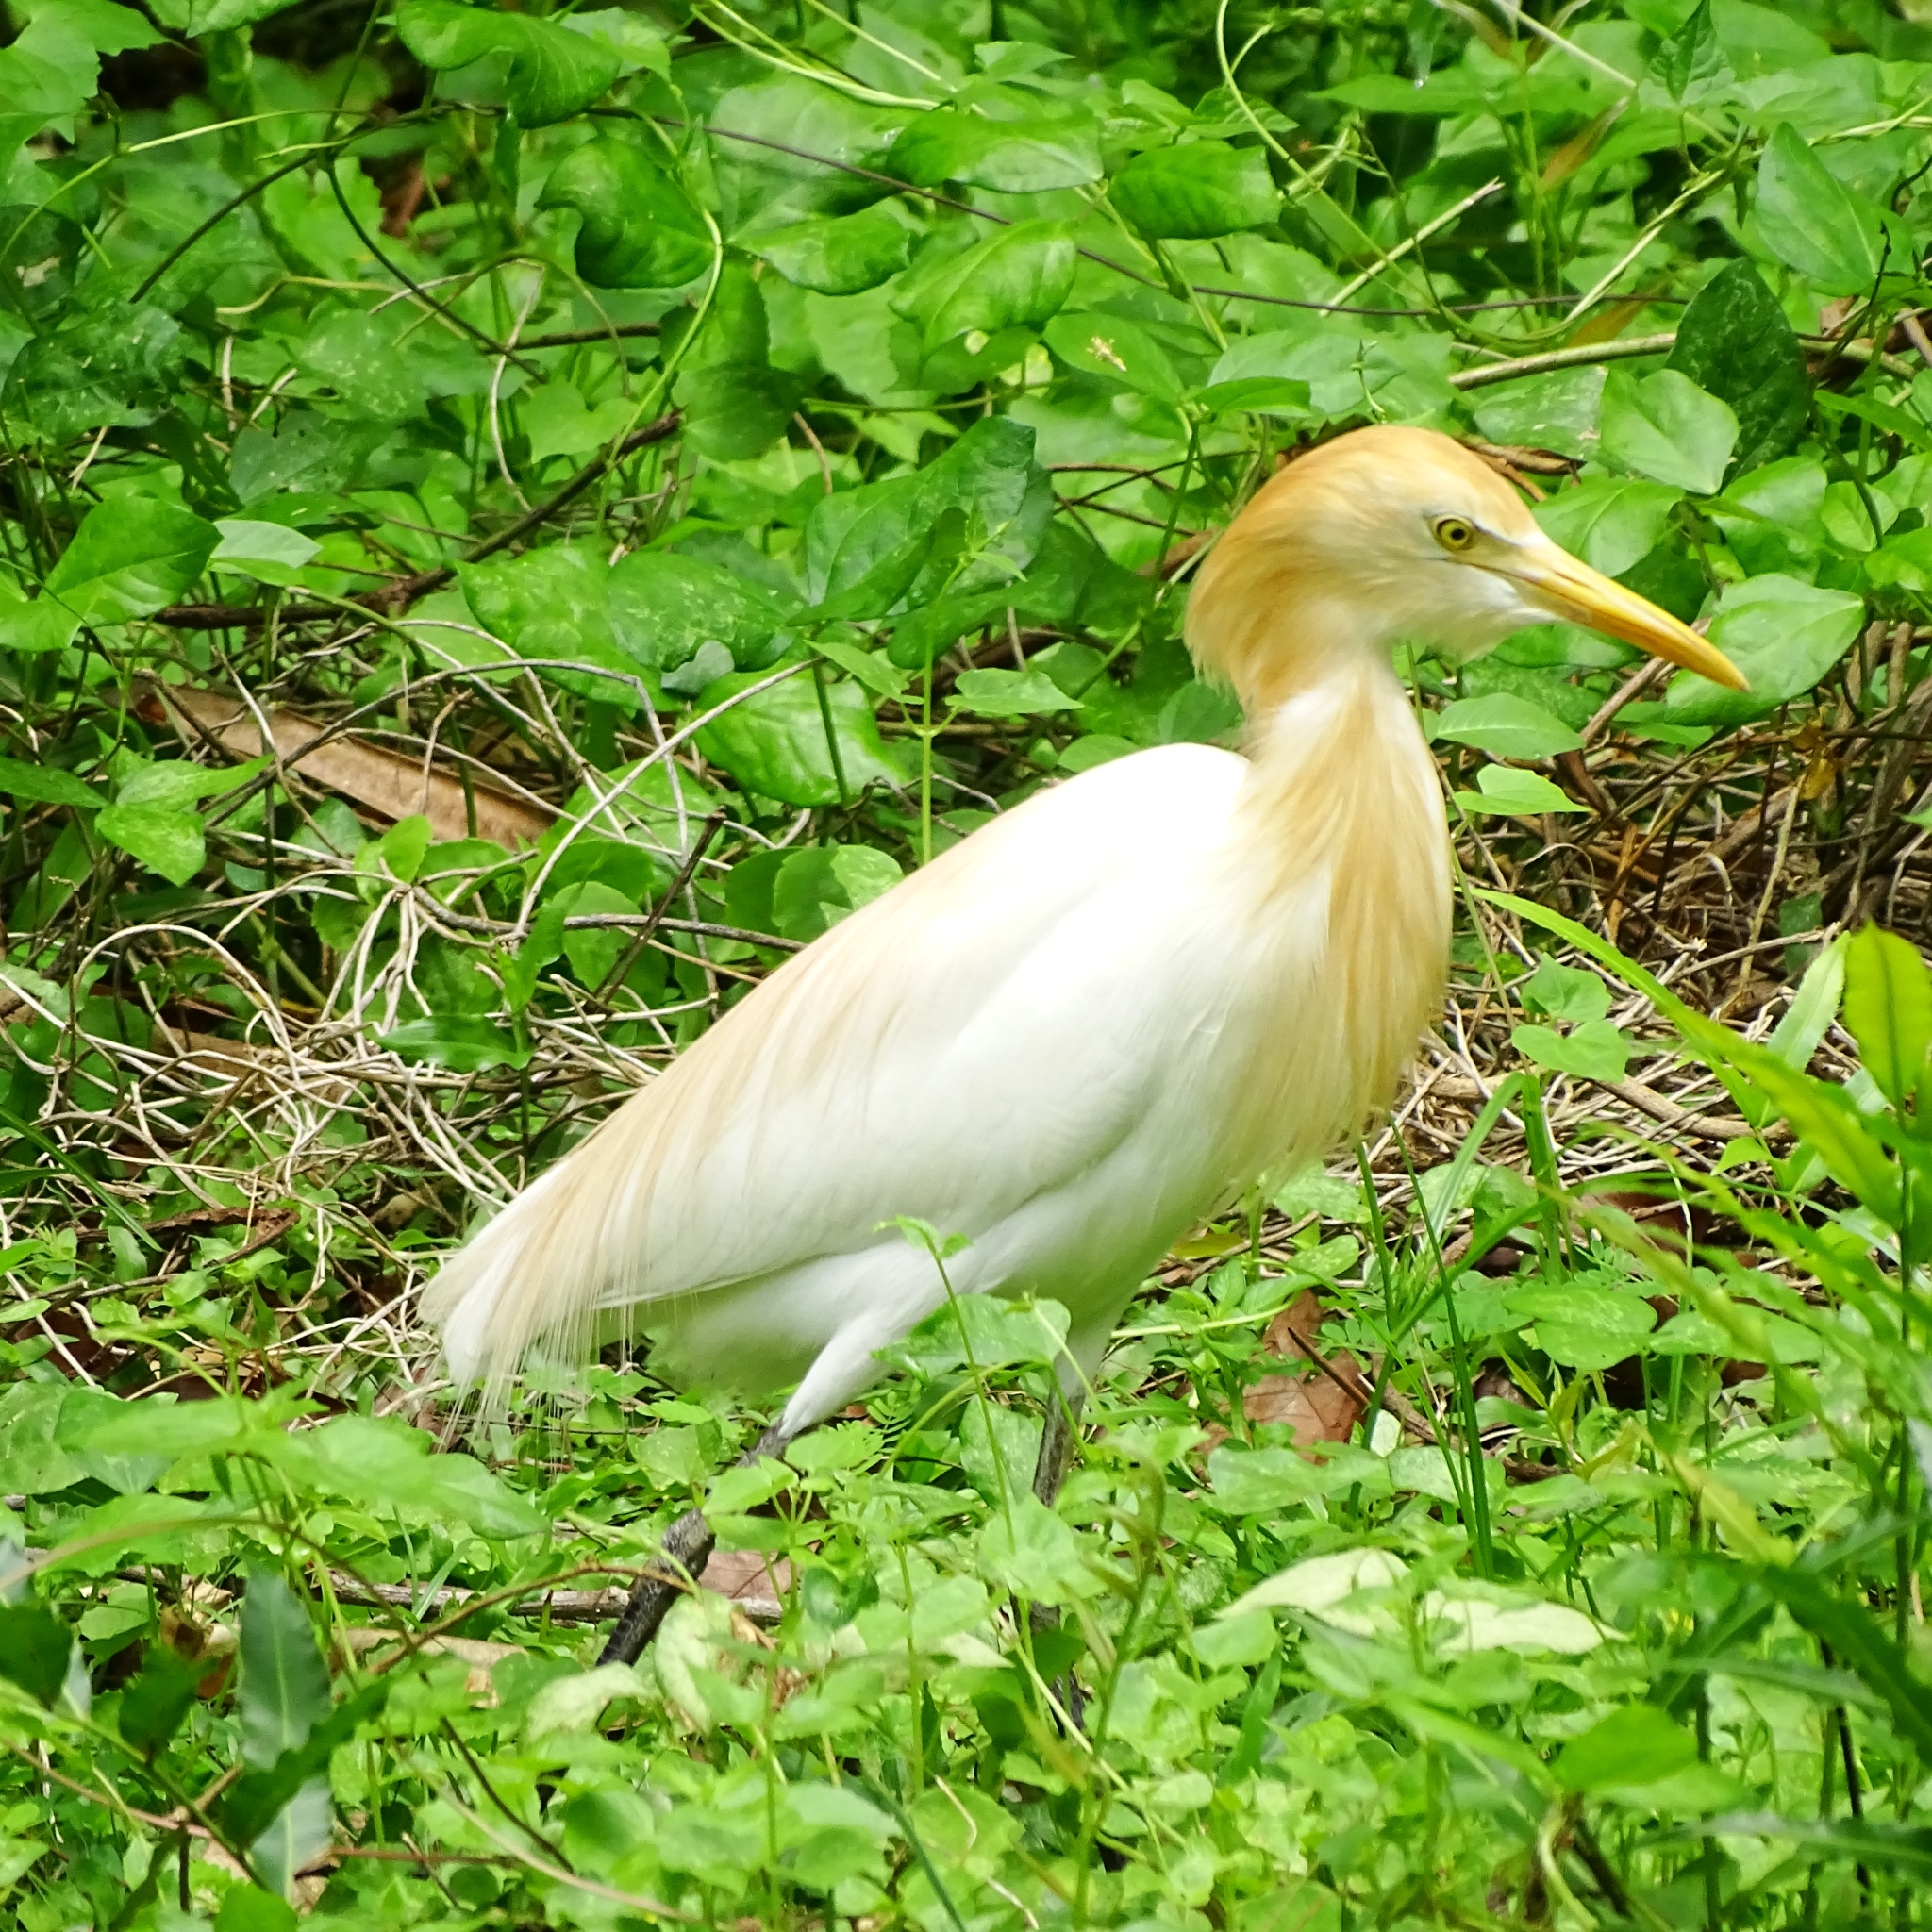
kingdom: Animalia
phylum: Chordata
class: Aves
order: Pelecaniformes
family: Ardeidae
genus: Bubulcus
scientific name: Bubulcus coromandus
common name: Eastern cattle egret
